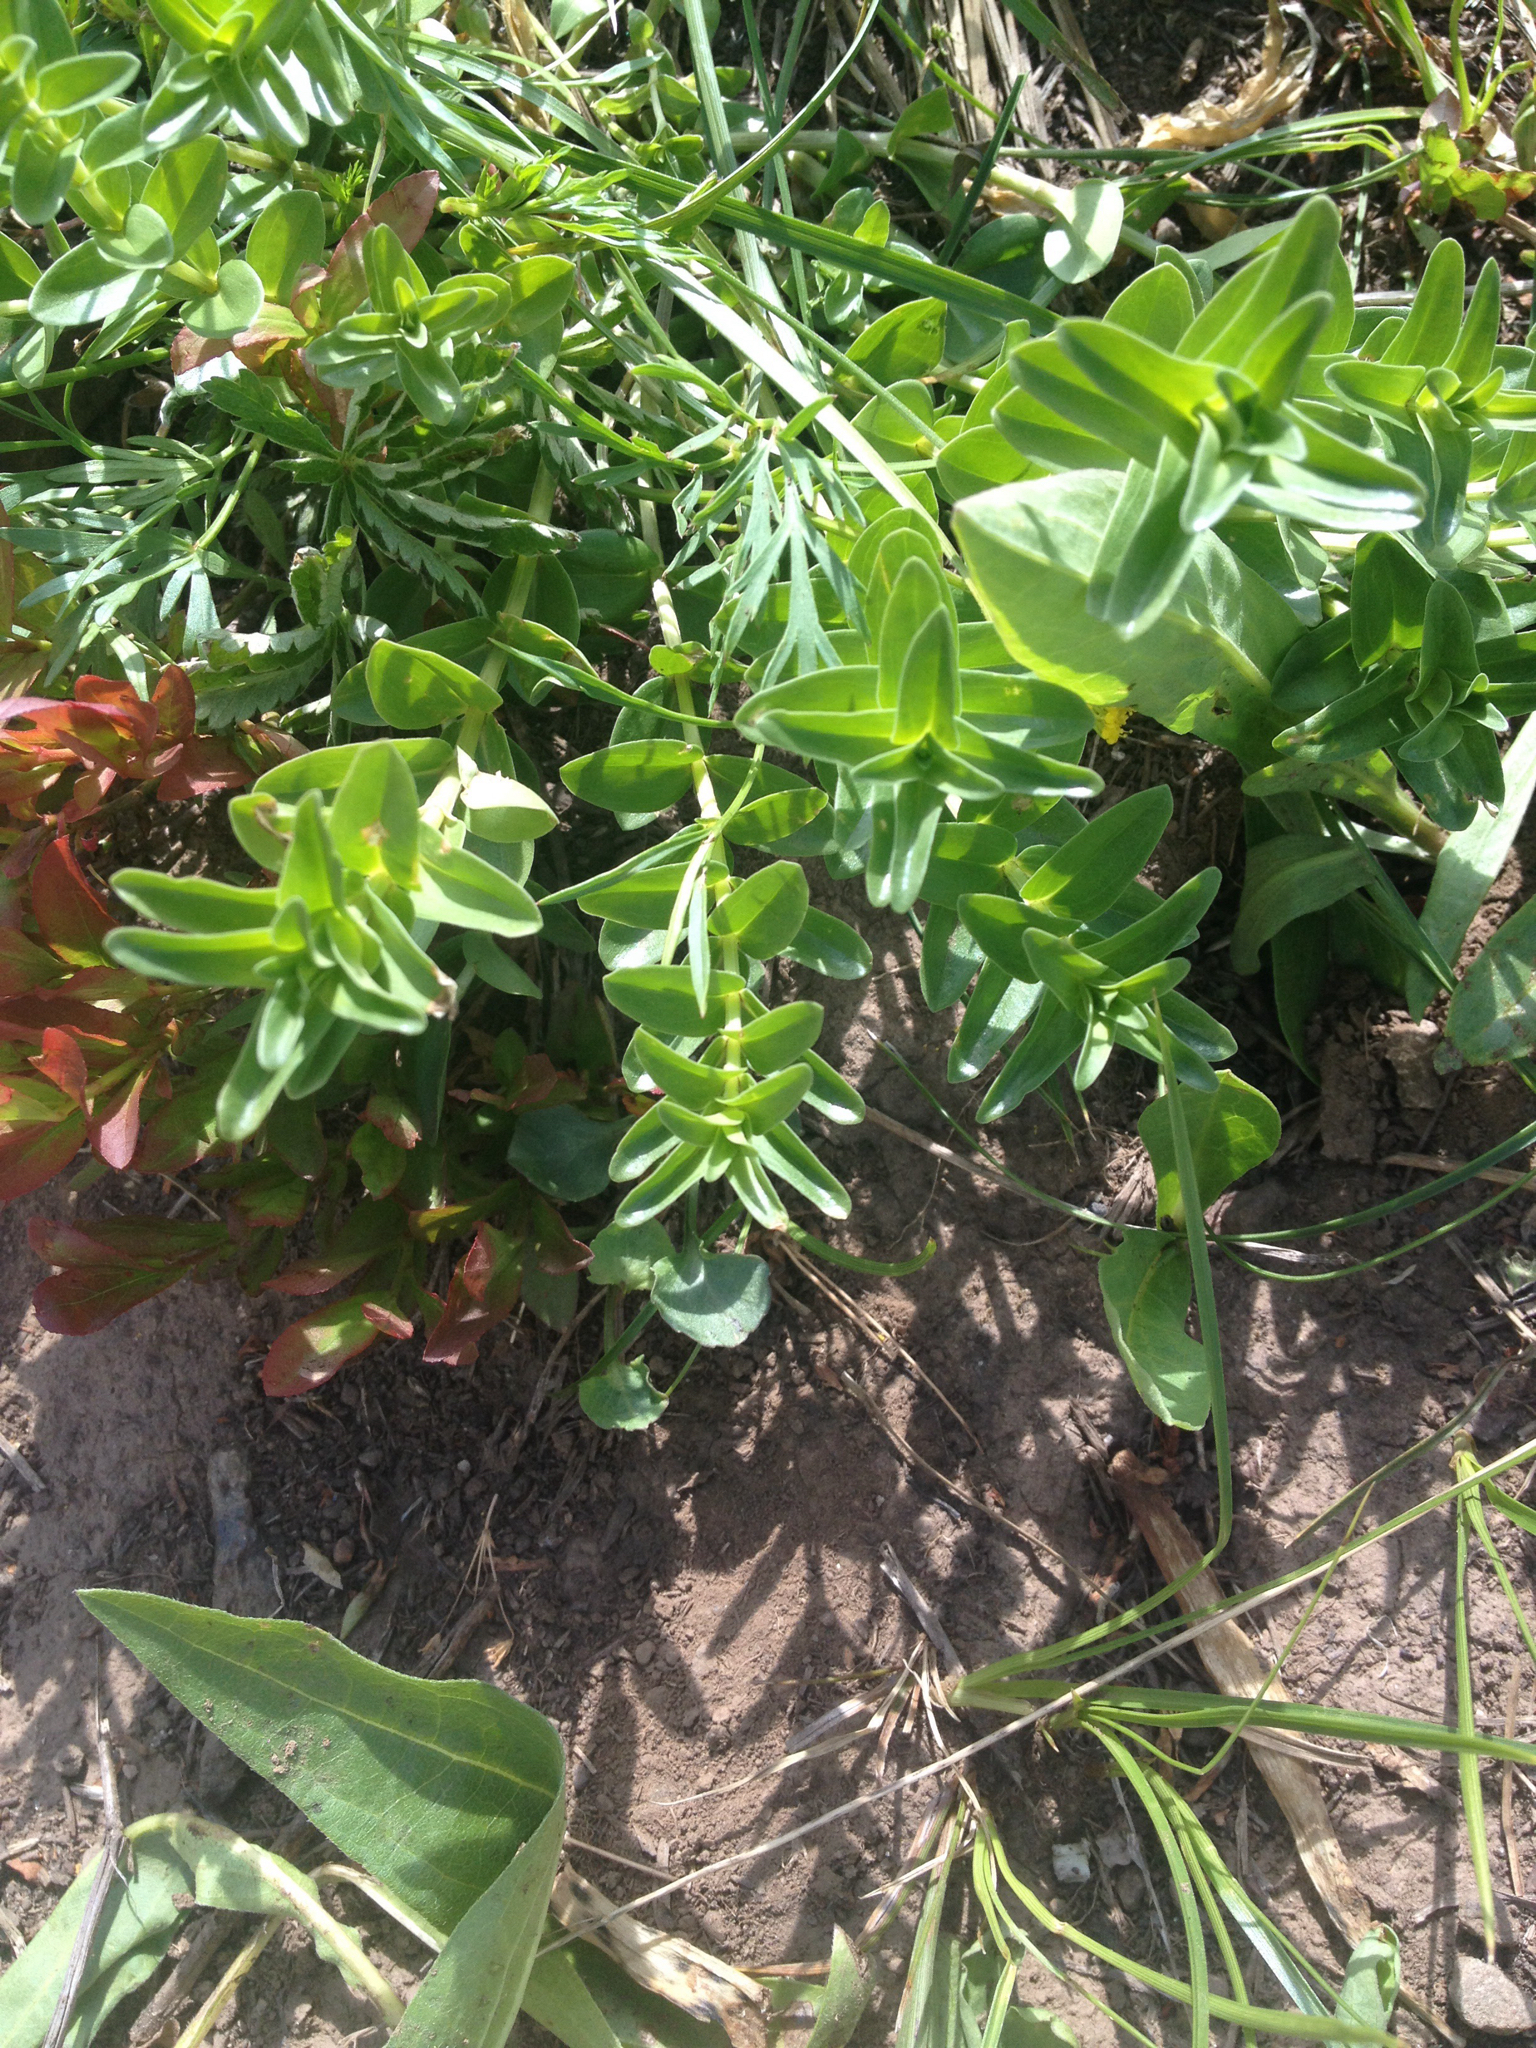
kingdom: Plantae
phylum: Tracheophyta
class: Magnoliopsida
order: Gentianales
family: Gentianaceae
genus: Gentiana
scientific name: Gentiana parryi
